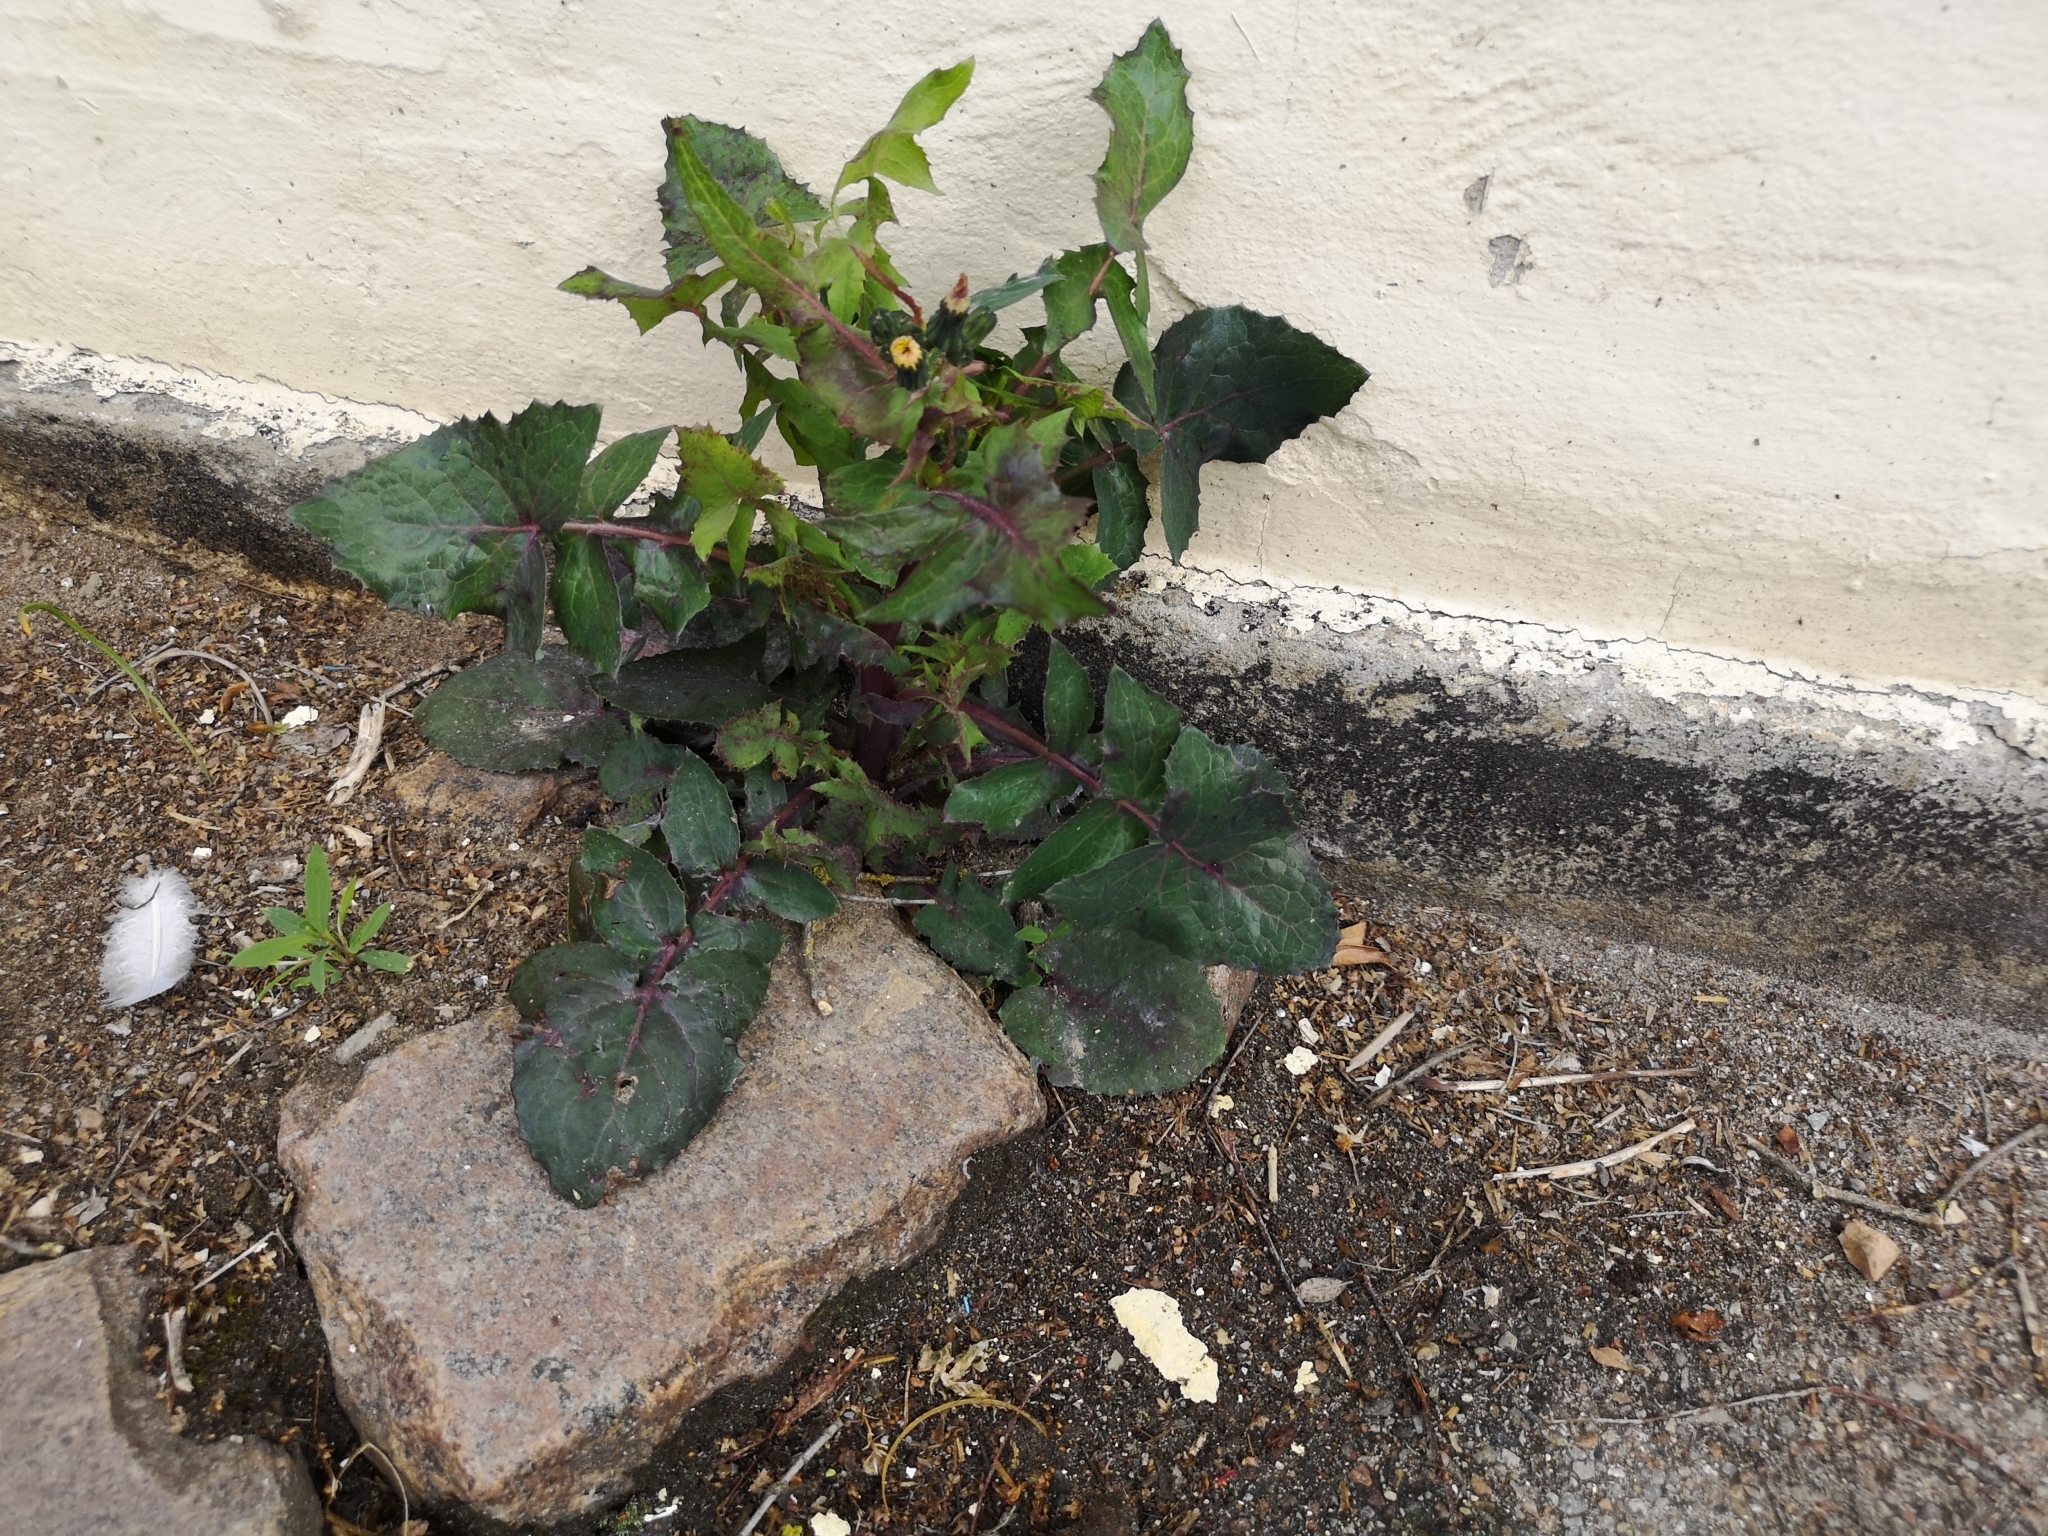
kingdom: Plantae
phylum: Tracheophyta
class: Magnoliopsida
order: Asterales
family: Asteraceae
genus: Sonchus
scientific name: Sonchus oleraceus
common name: Common sowthistle
